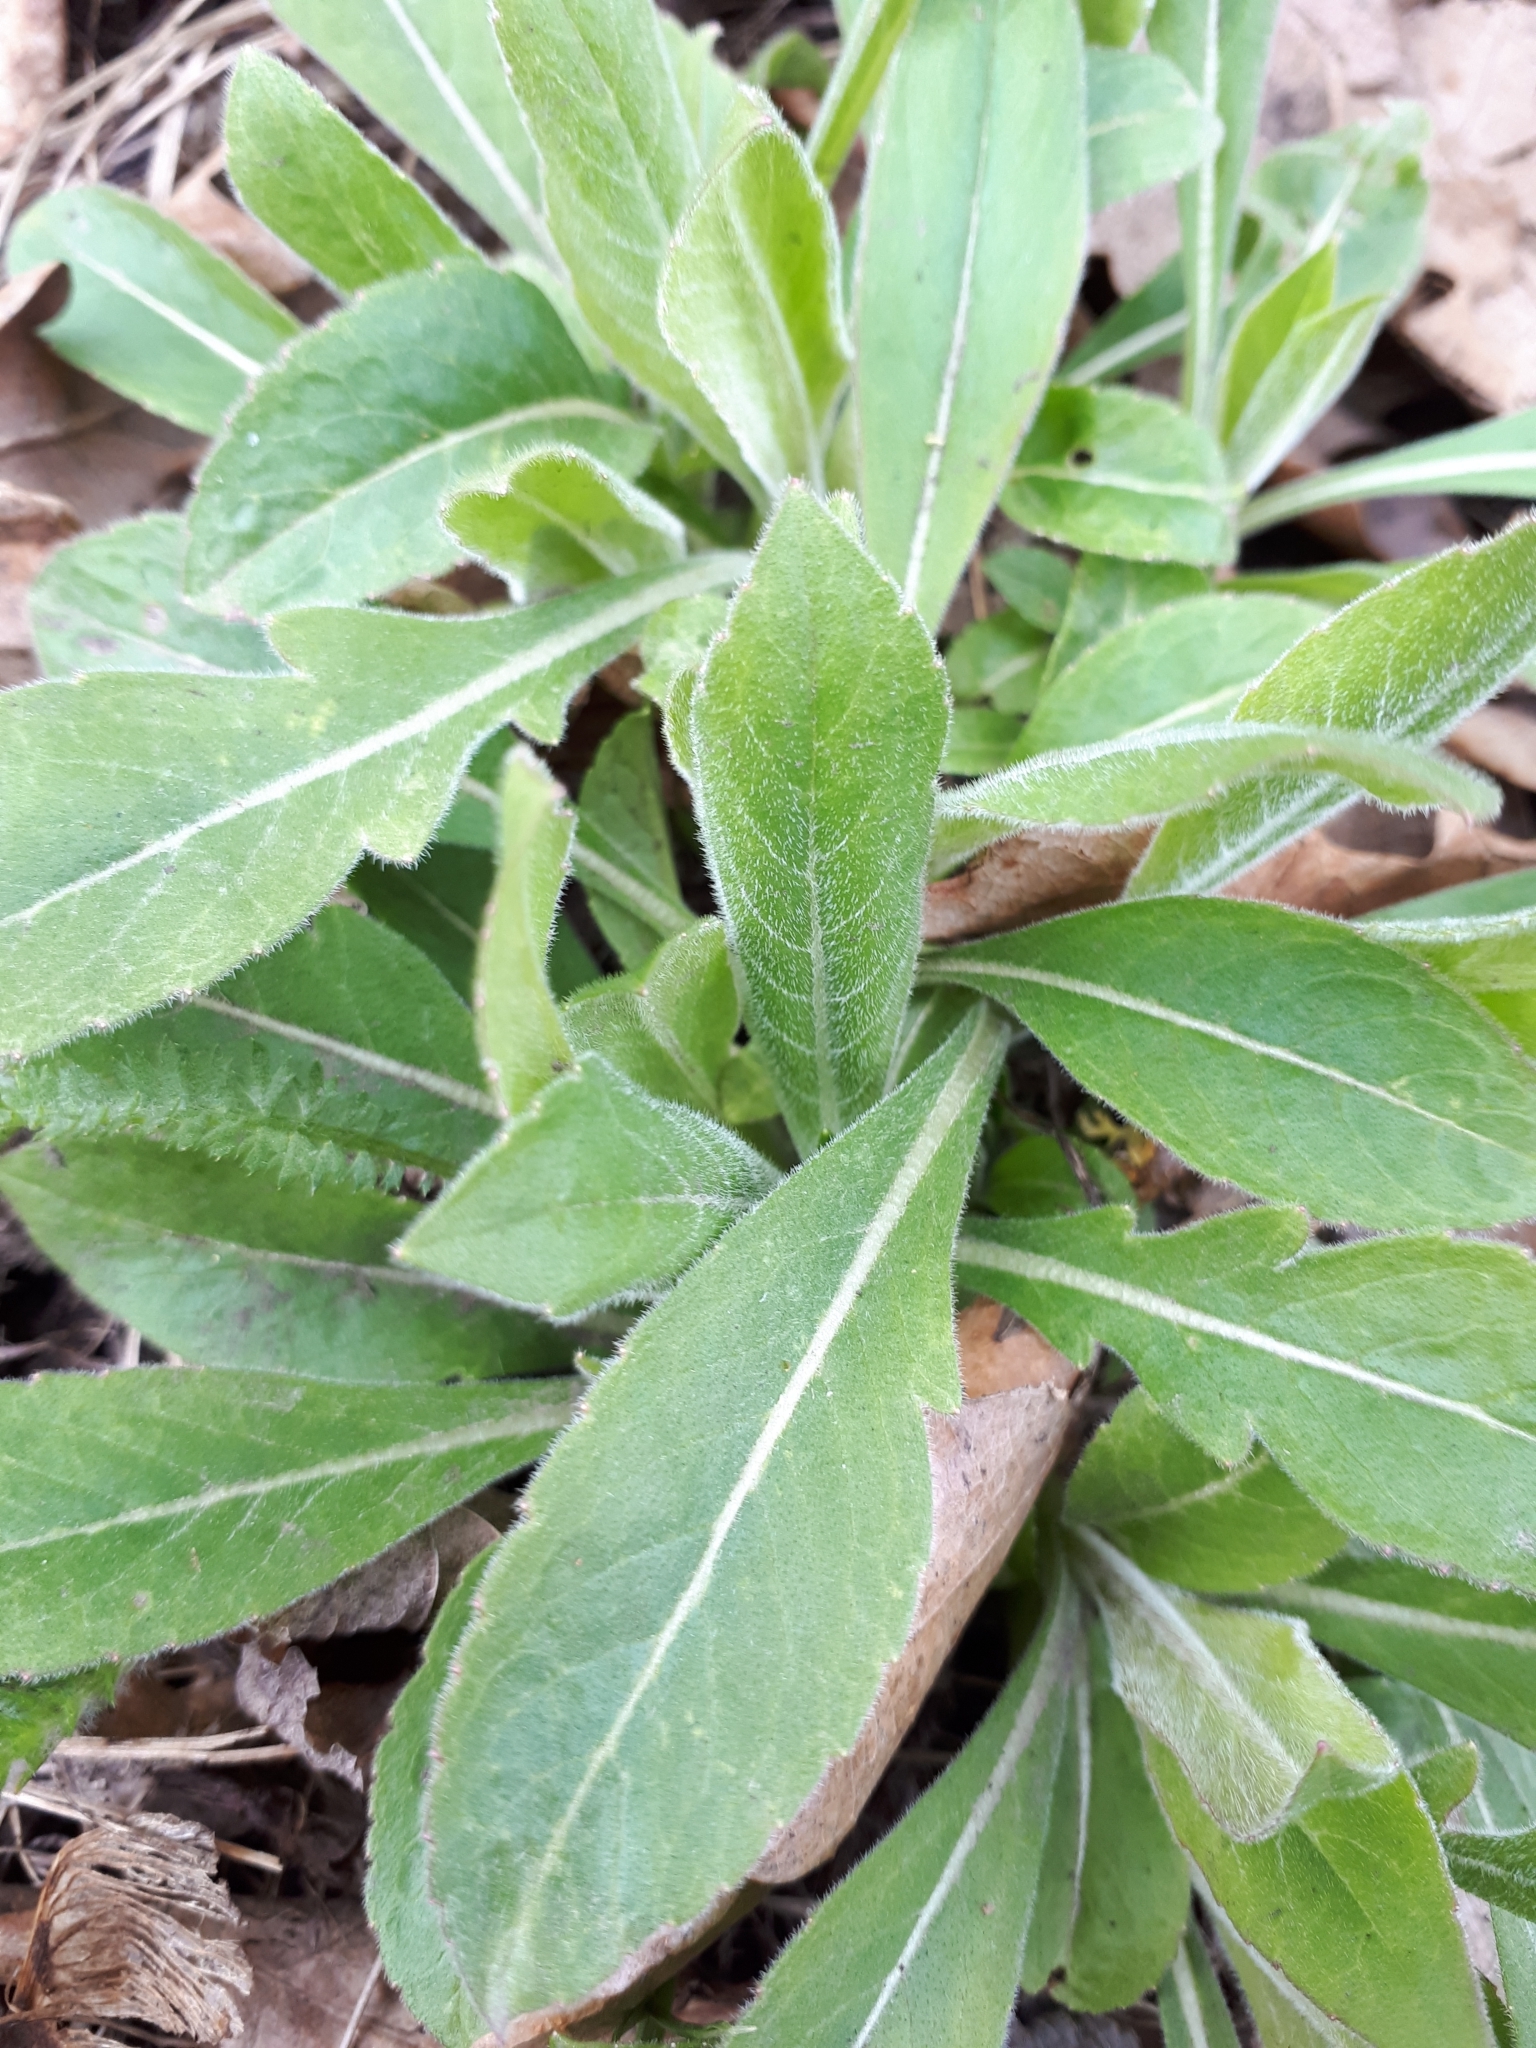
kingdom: Plantae
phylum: Tracheophyta
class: Magnoliopsida
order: Dipsacales
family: Caprifoliaceae
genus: Knautia
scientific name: Knautia arvensis
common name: Field scabiosa
